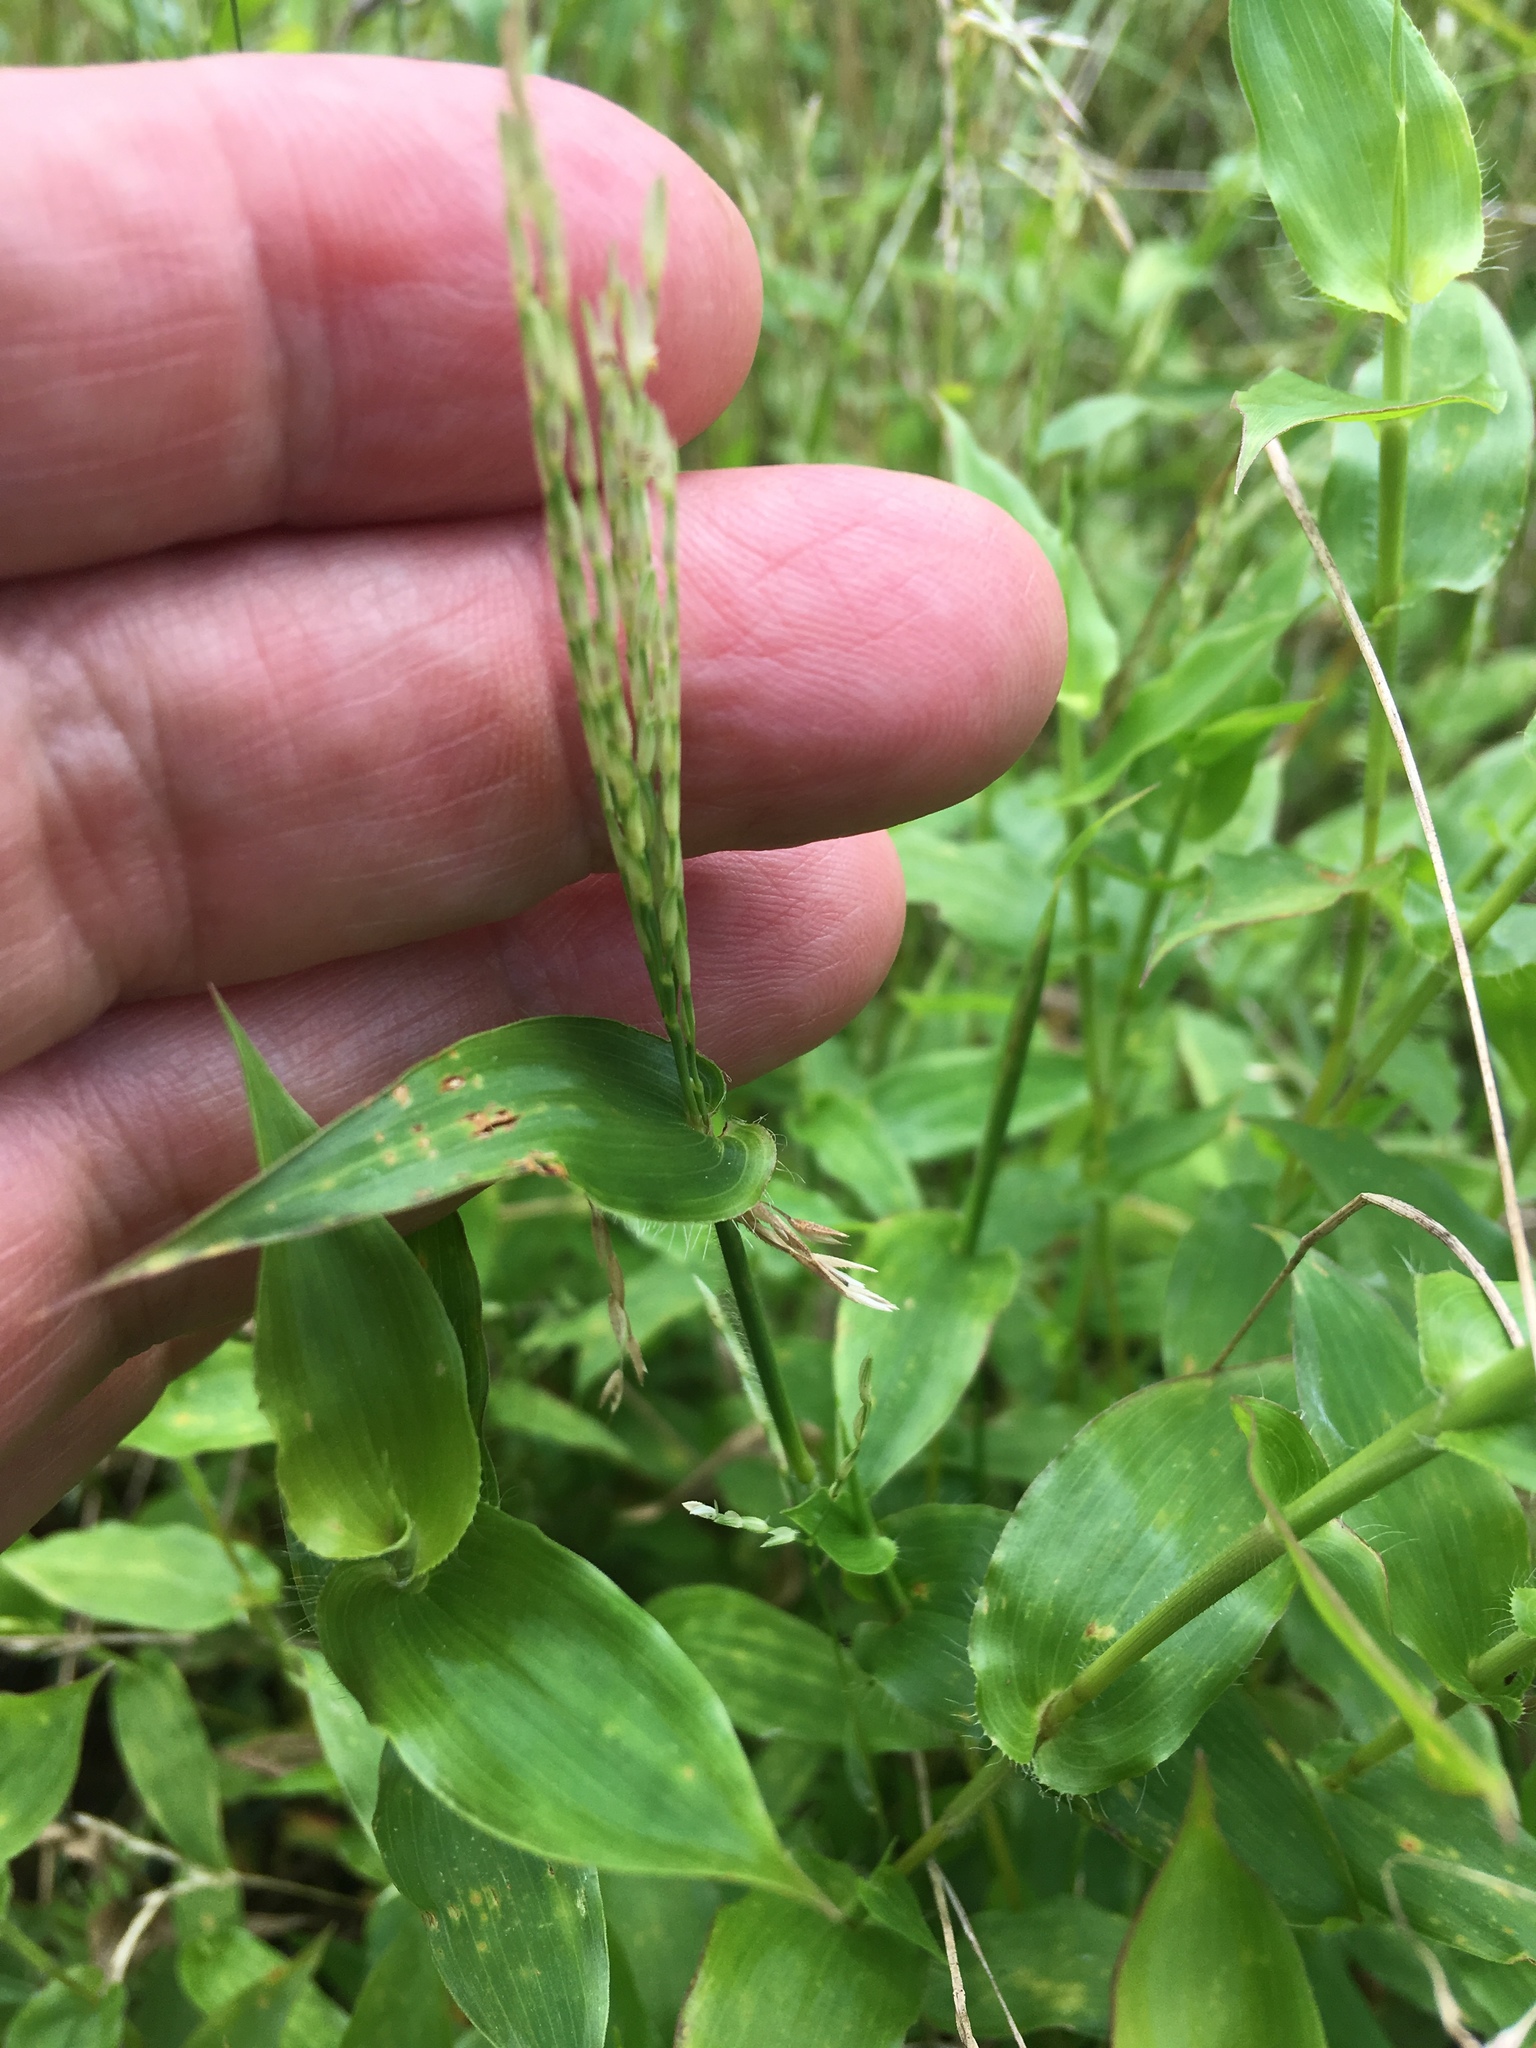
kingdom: Plantae
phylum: Tracheophyta
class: Liliopsida
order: Poales
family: Poaceae
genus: Arthraxon
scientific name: Arthraxon hispidus
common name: Small carpgrass
